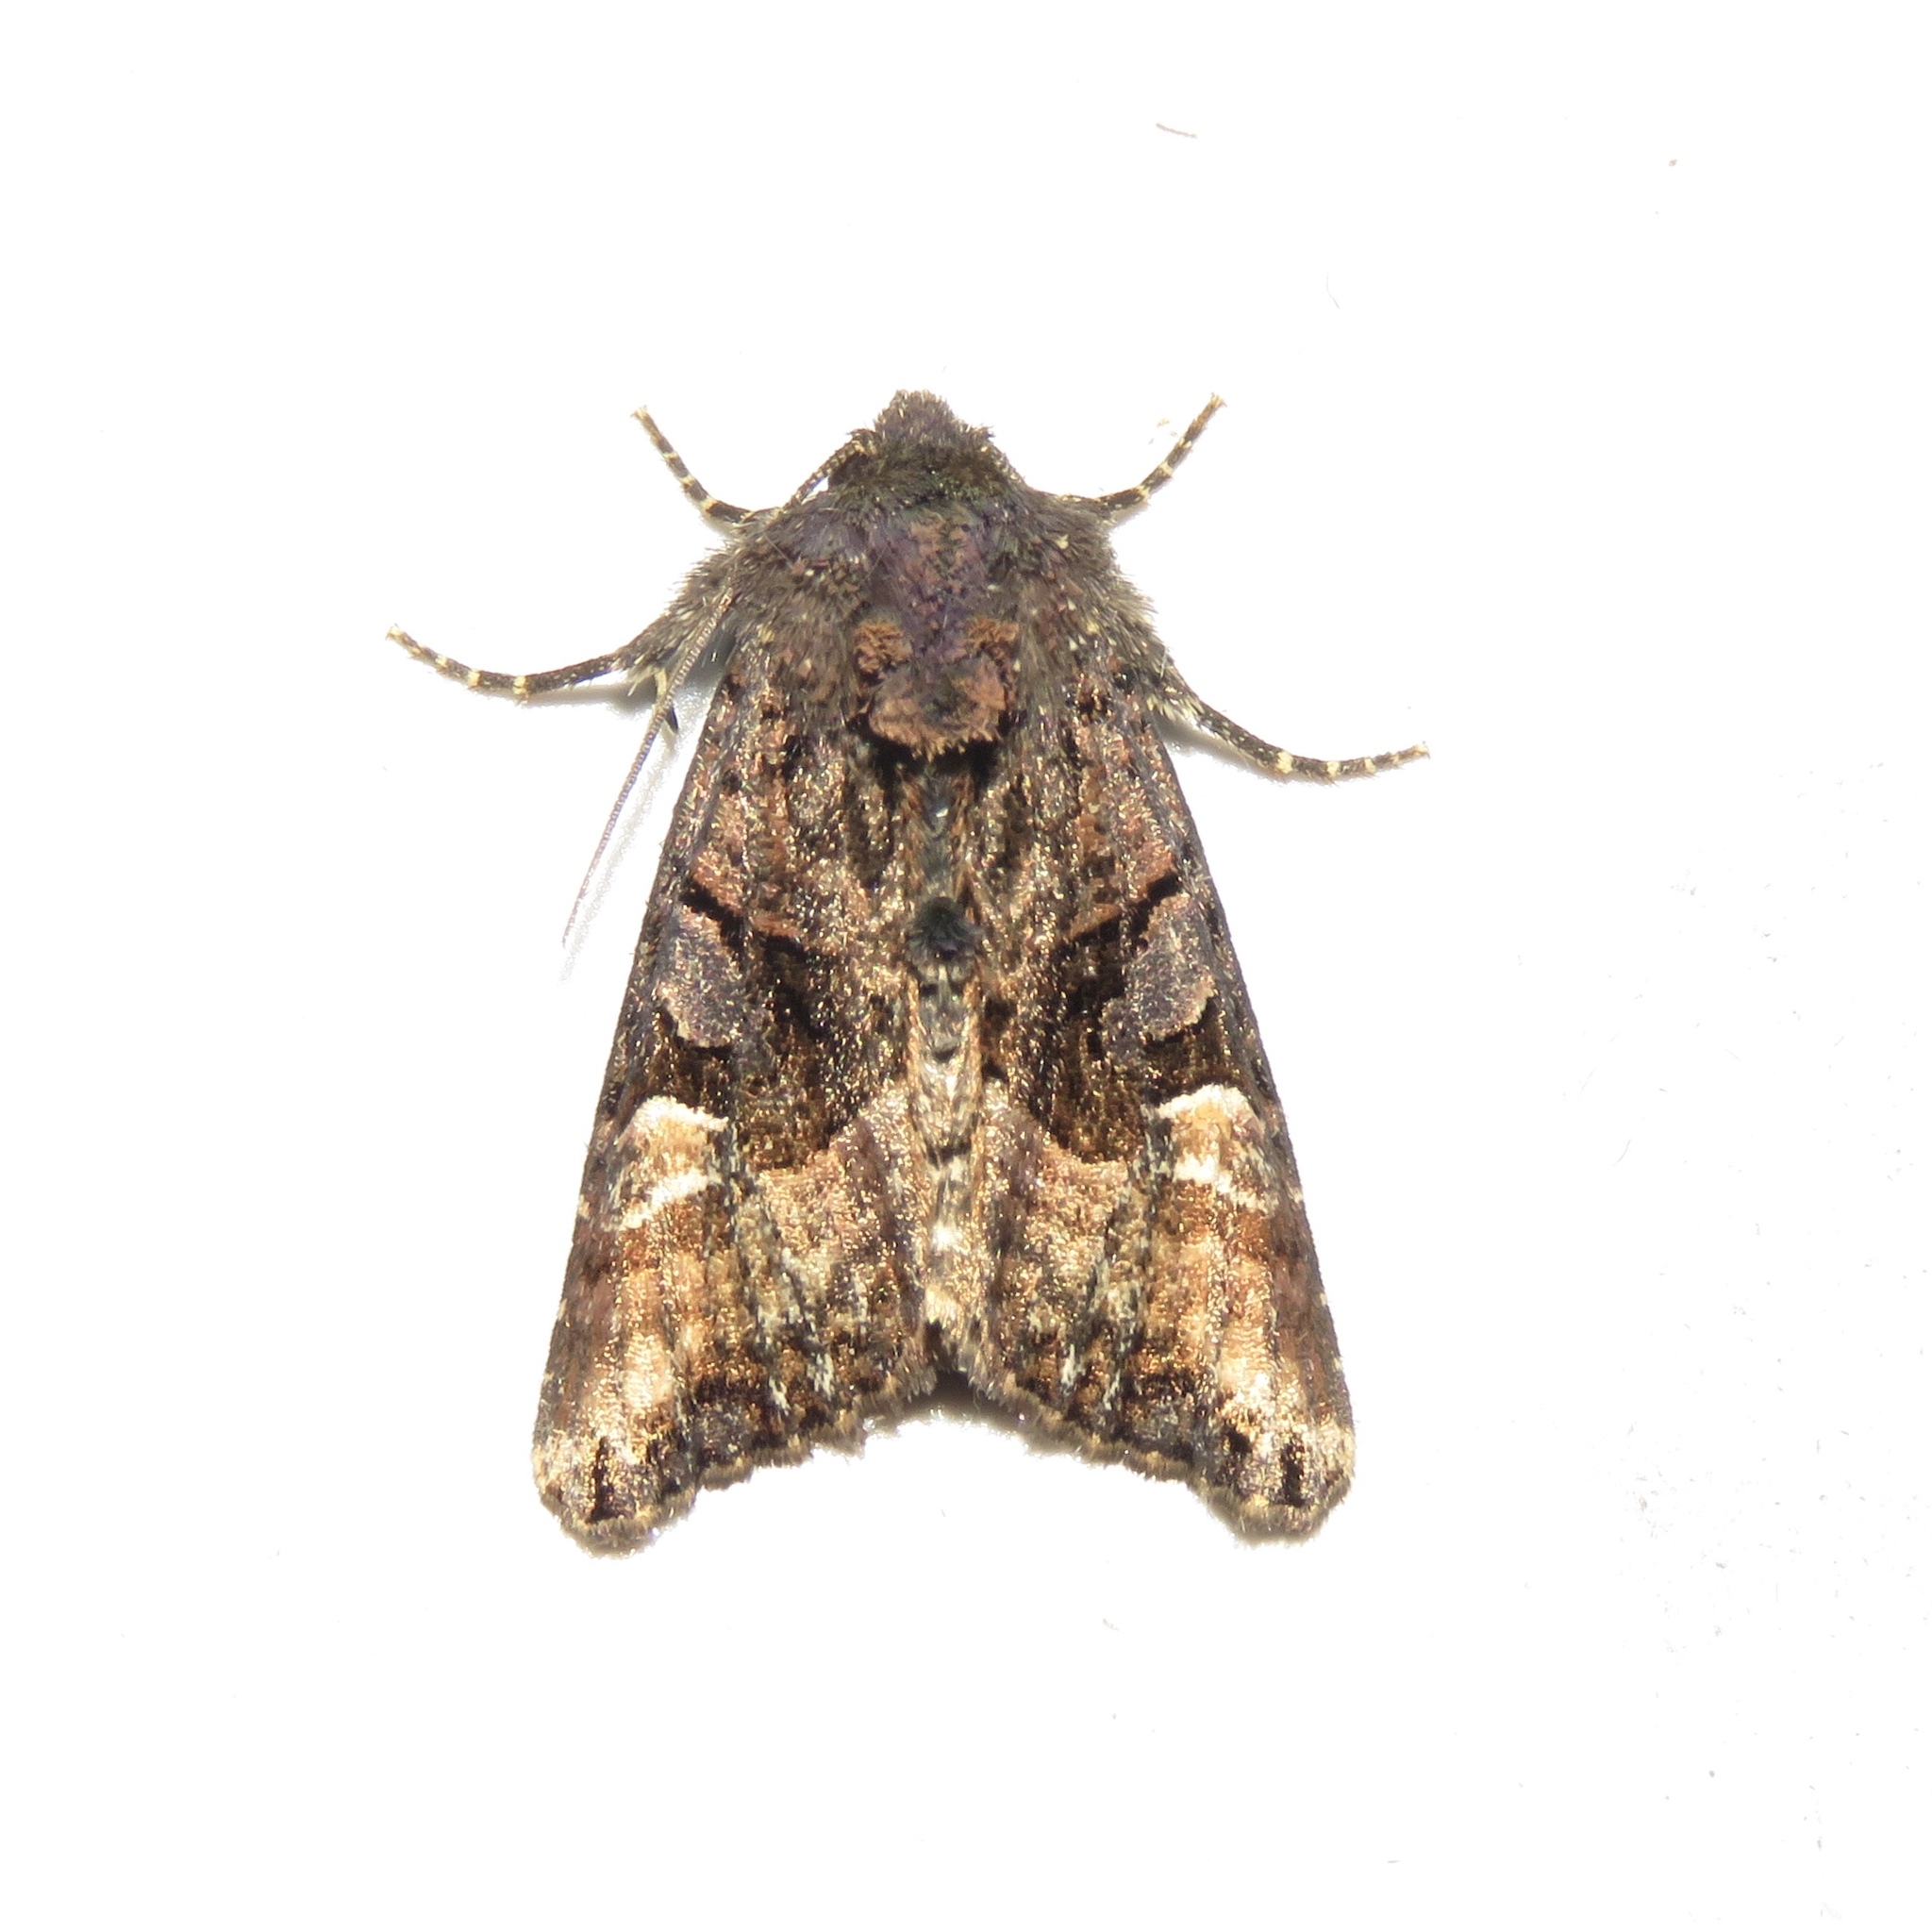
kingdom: Animalia
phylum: Arthropoda
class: Insecta
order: Lepidoptera
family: Noctuidae
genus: Euplexia
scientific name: Euplexia benesimilis
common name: American angle shades
